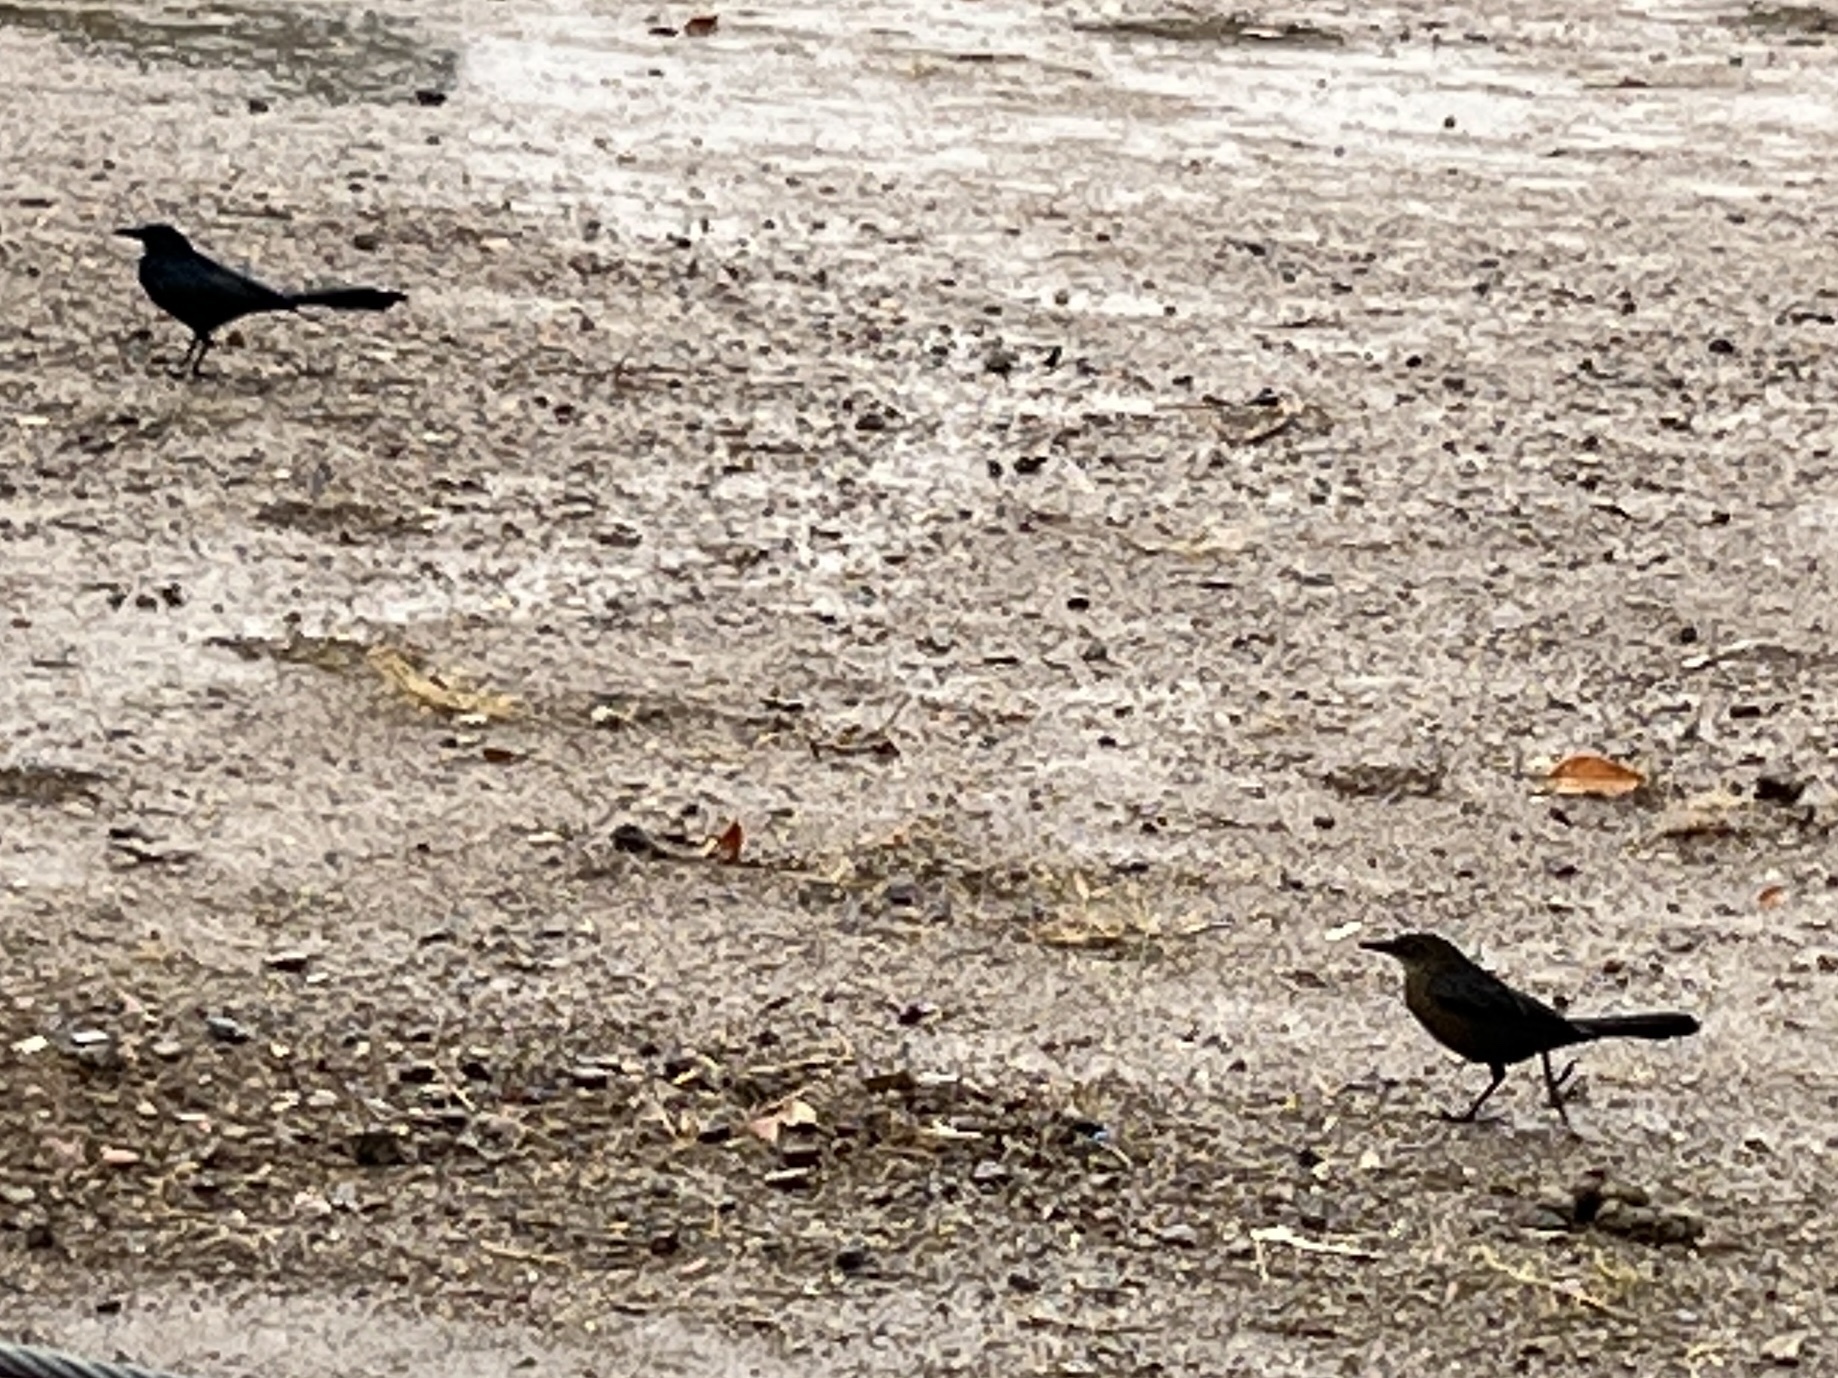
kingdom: Animalia
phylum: Chordata
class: Aves
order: Passeriformes
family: Icteridae
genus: Quiscalus
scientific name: Quiscalus mexicanus
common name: Great-tailed grackle
